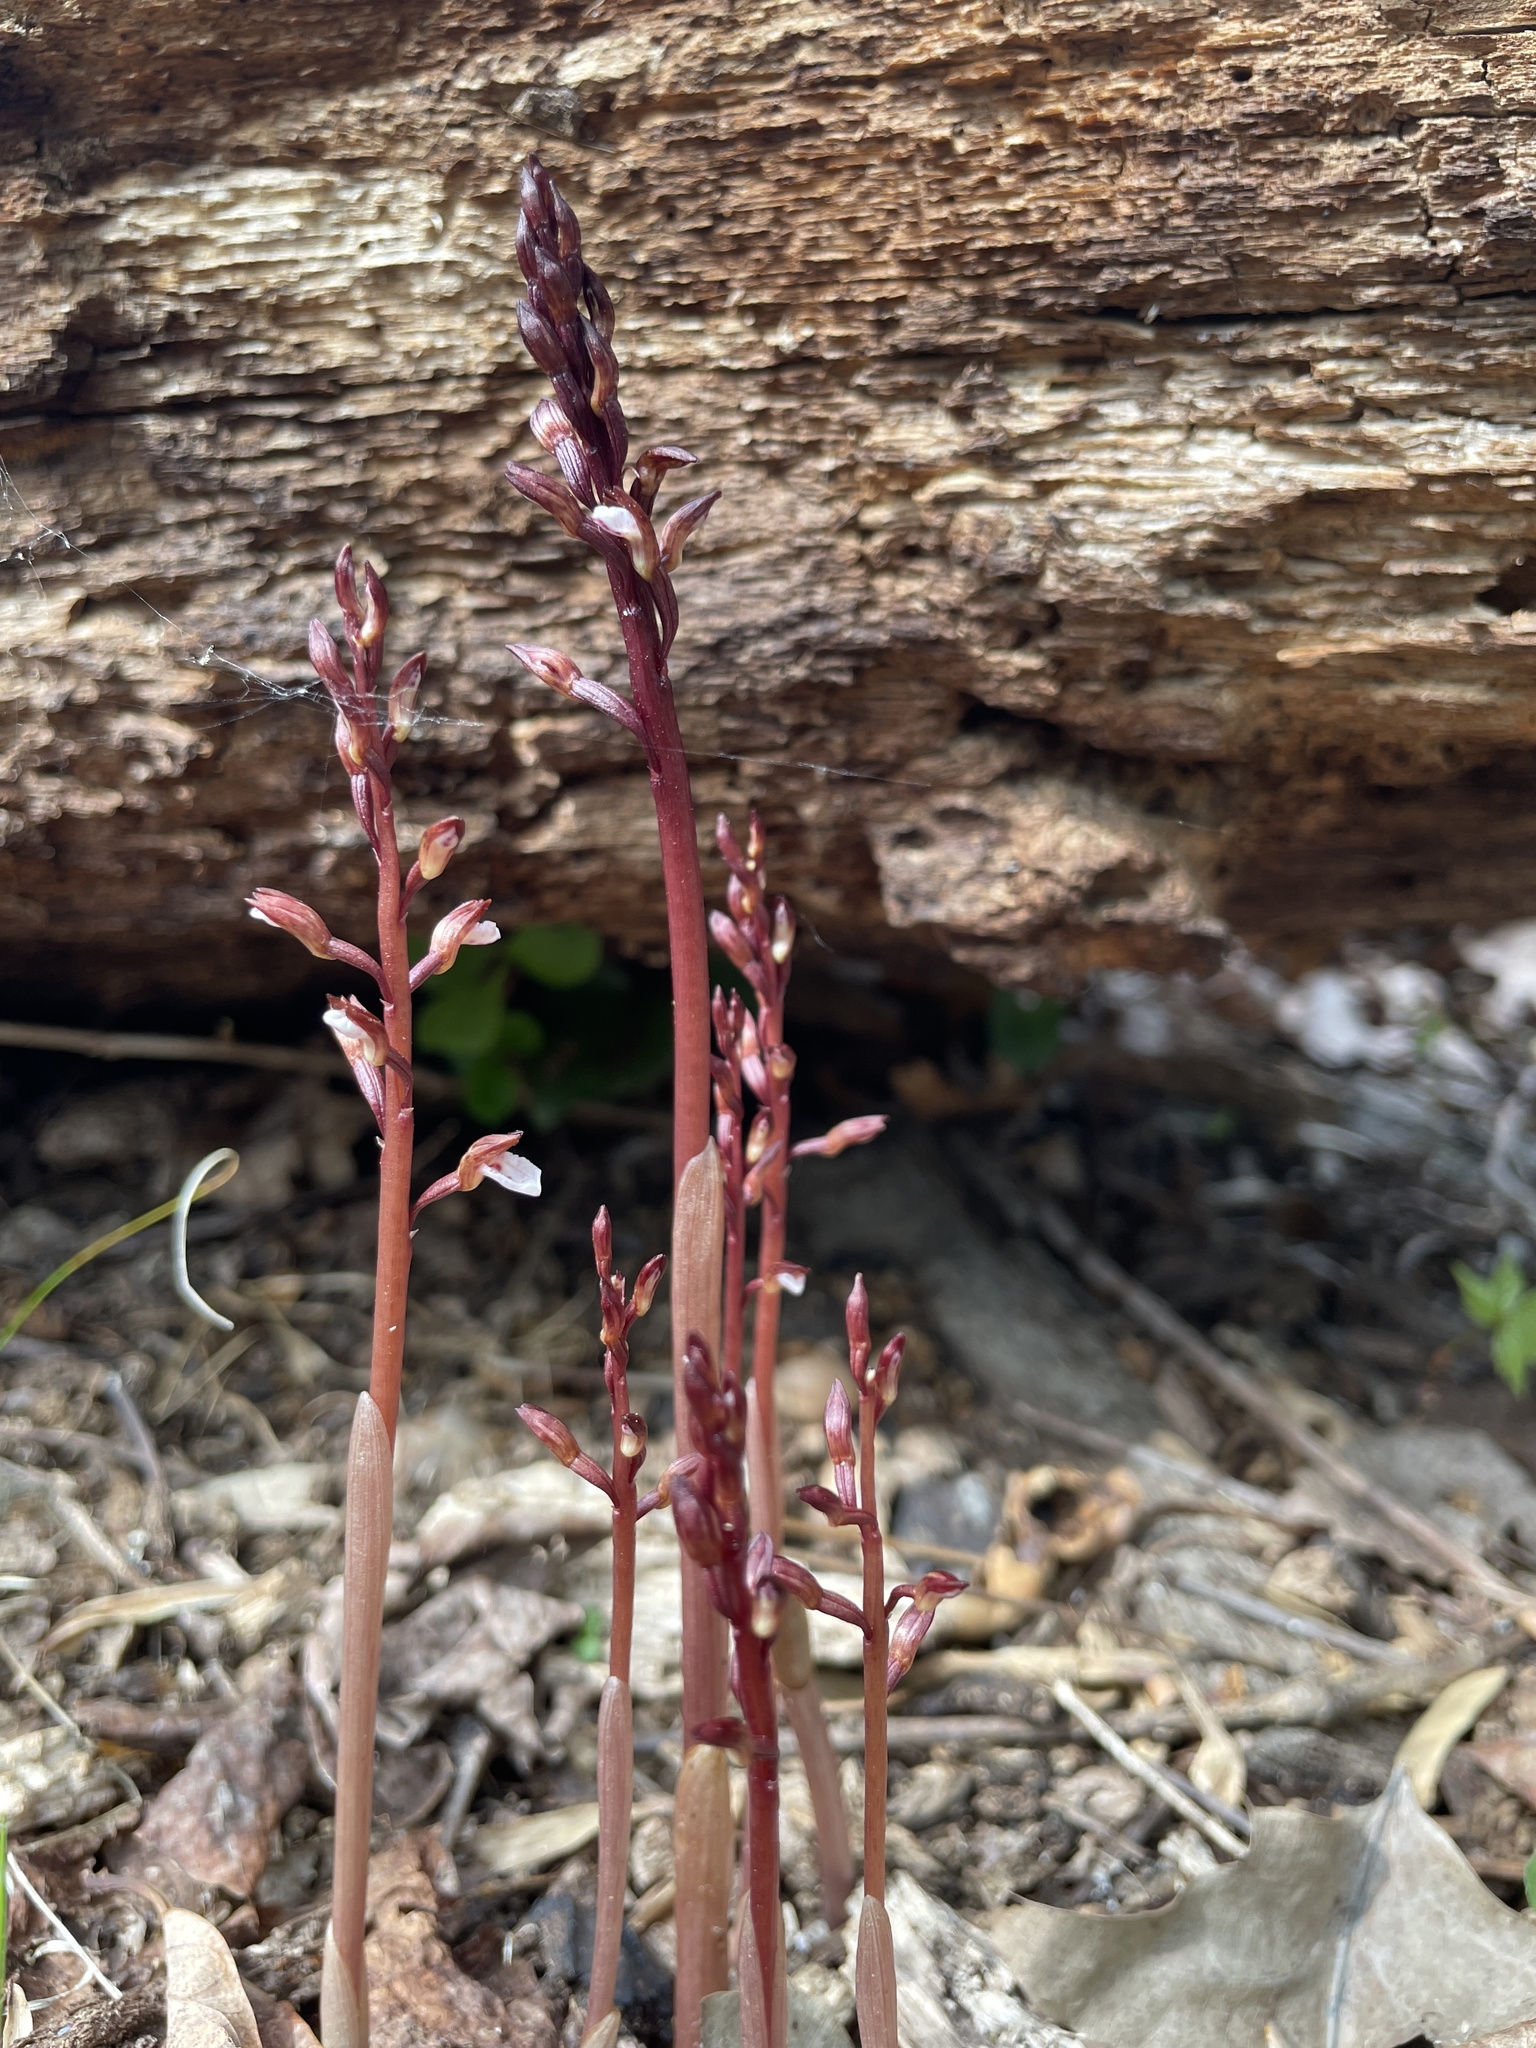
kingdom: Plantae
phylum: Tracheophyta
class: Liliopsida
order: Asparagales
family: Orchidaceae
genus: Corallorhiza
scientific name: Corallorhiza wisteriana
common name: Spring coralroot
